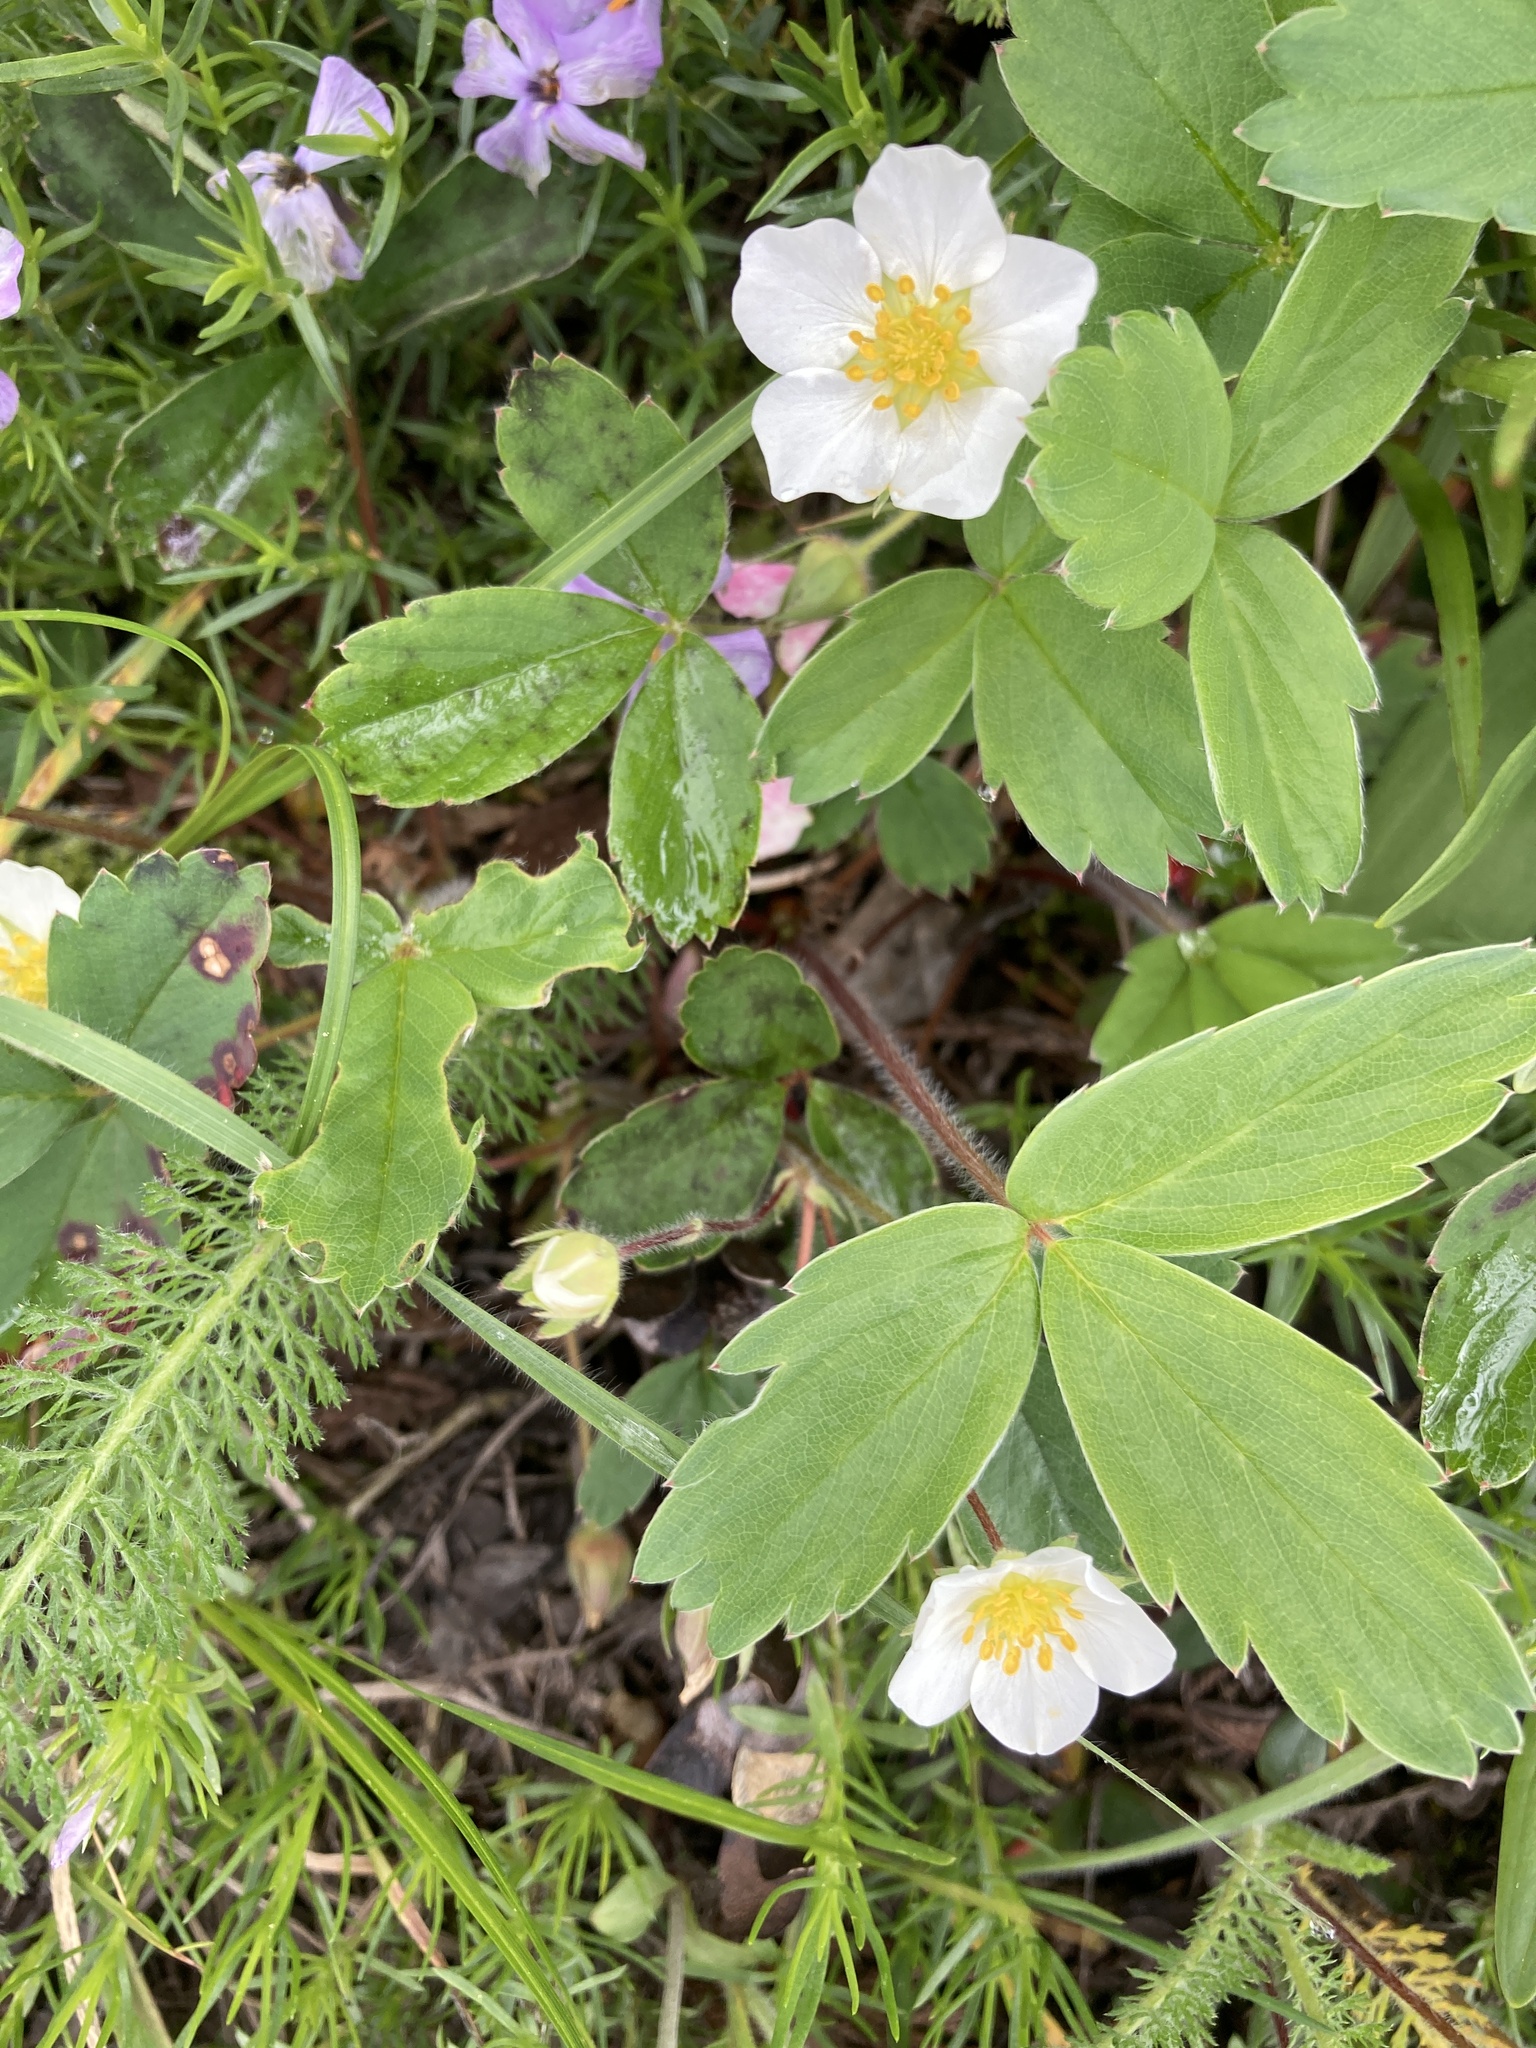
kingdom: Plantae
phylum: Tracheophyta
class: Magnoliopsida
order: Rosales
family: Rosaceae
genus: Fragaria
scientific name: Fragaria virginiana
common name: Thickleaved wild strawberry
